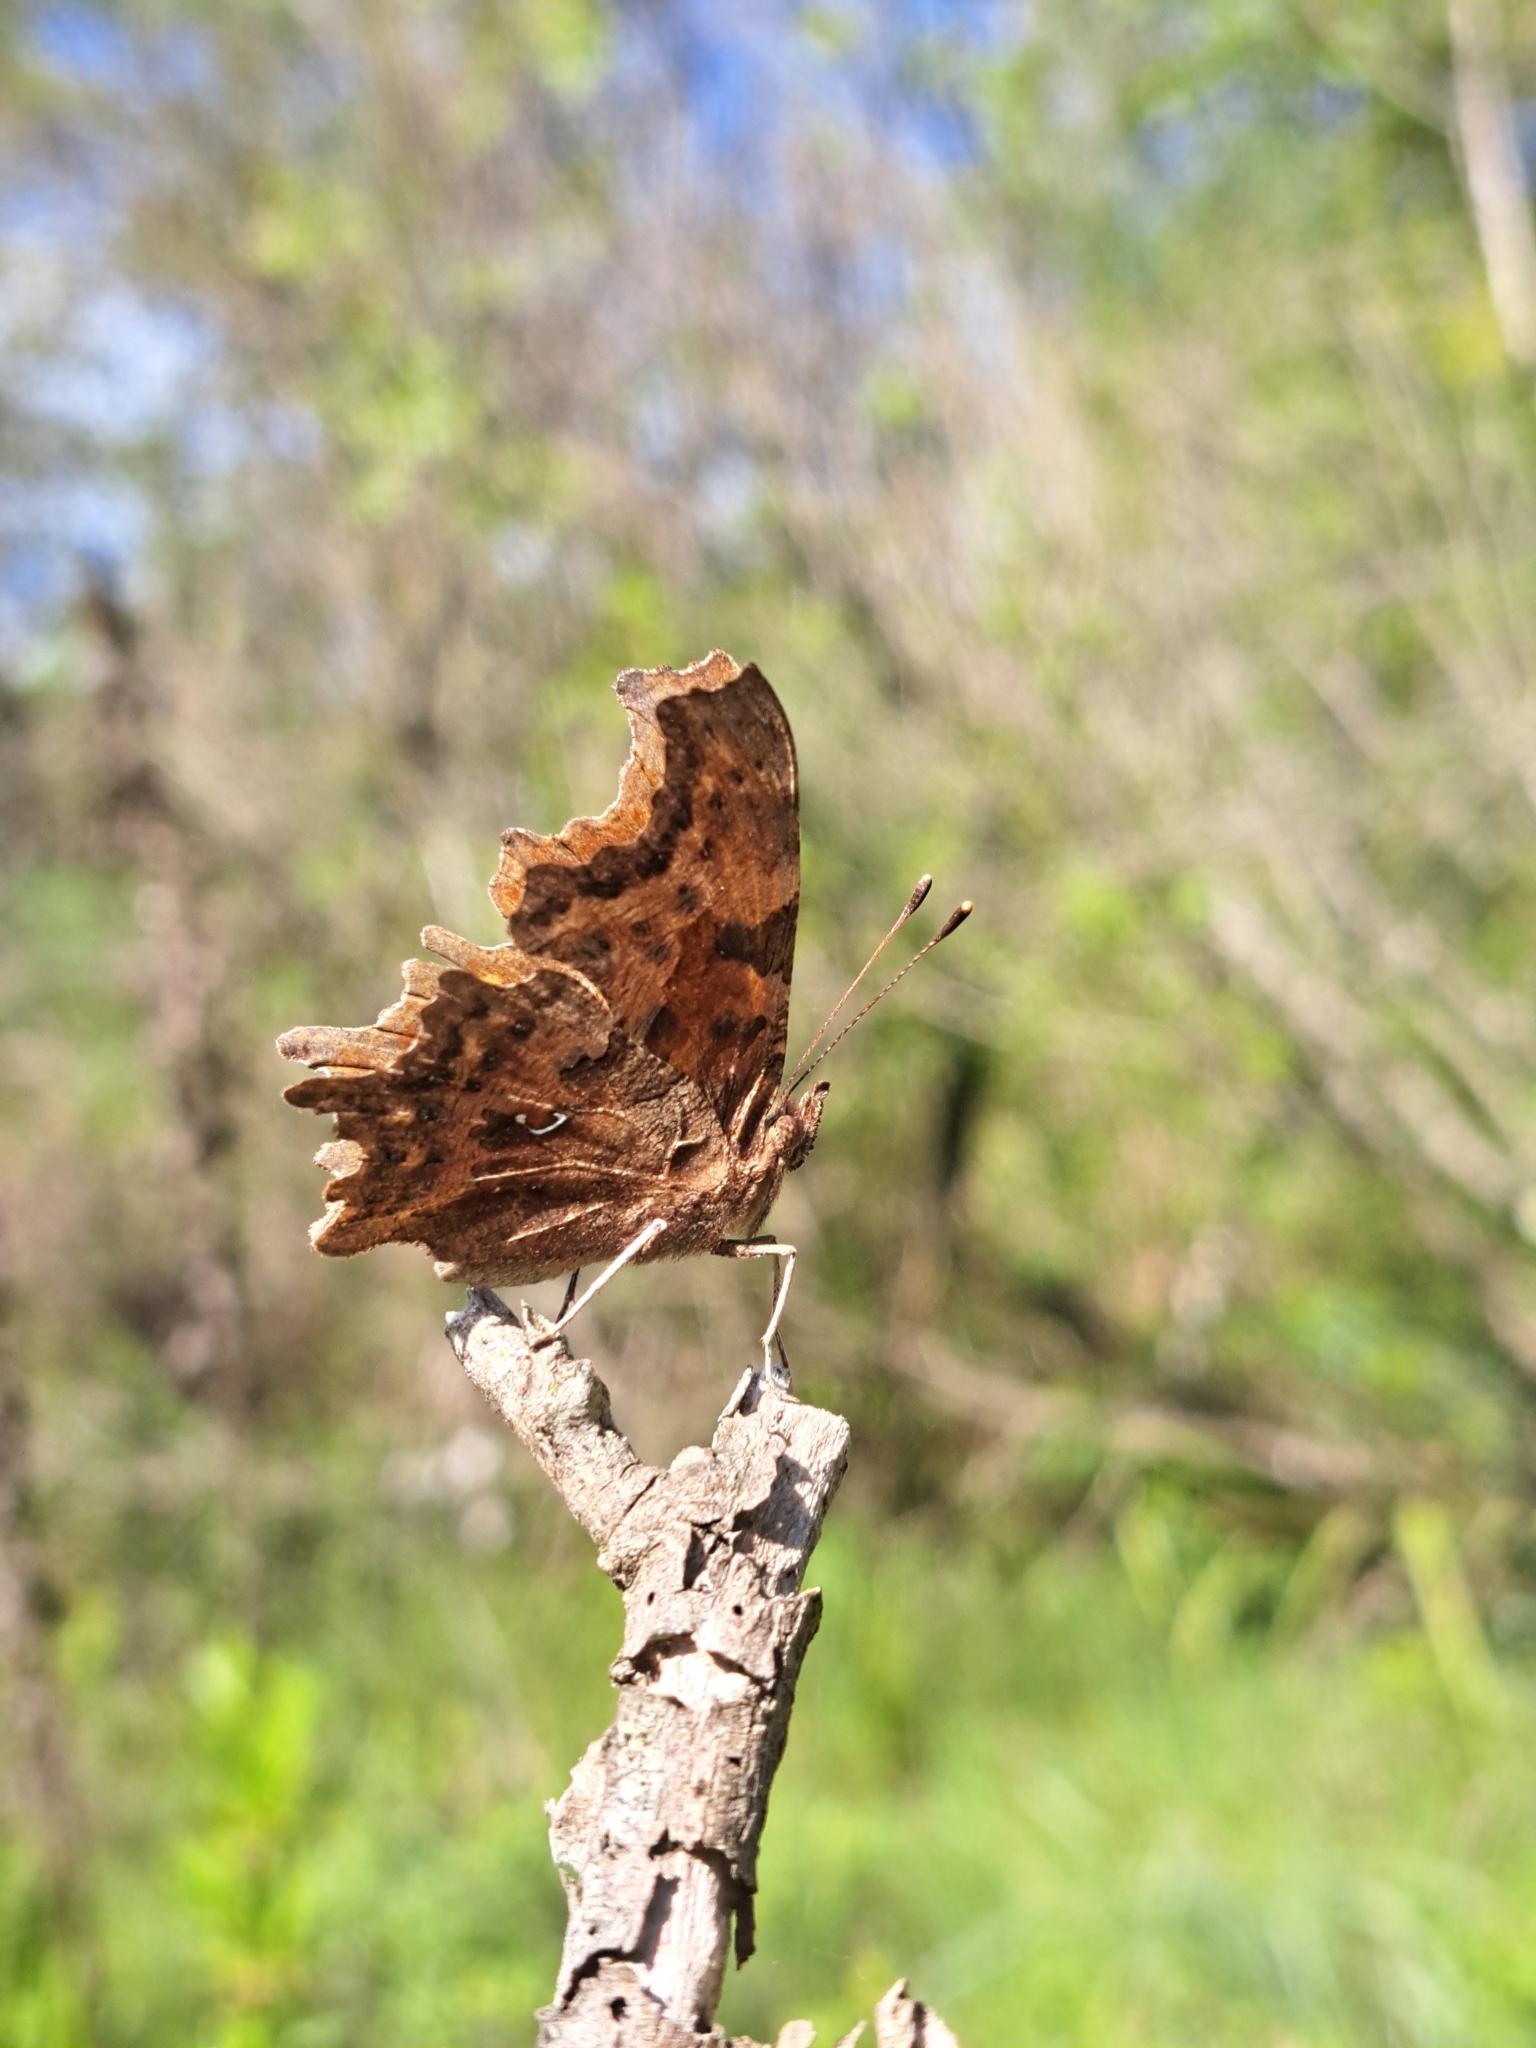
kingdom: Animalia
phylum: Arthropoda
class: Insecta
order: Lepidoptera
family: Nymphalidae
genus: Polygonia
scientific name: Polygonia c-album
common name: Comma
